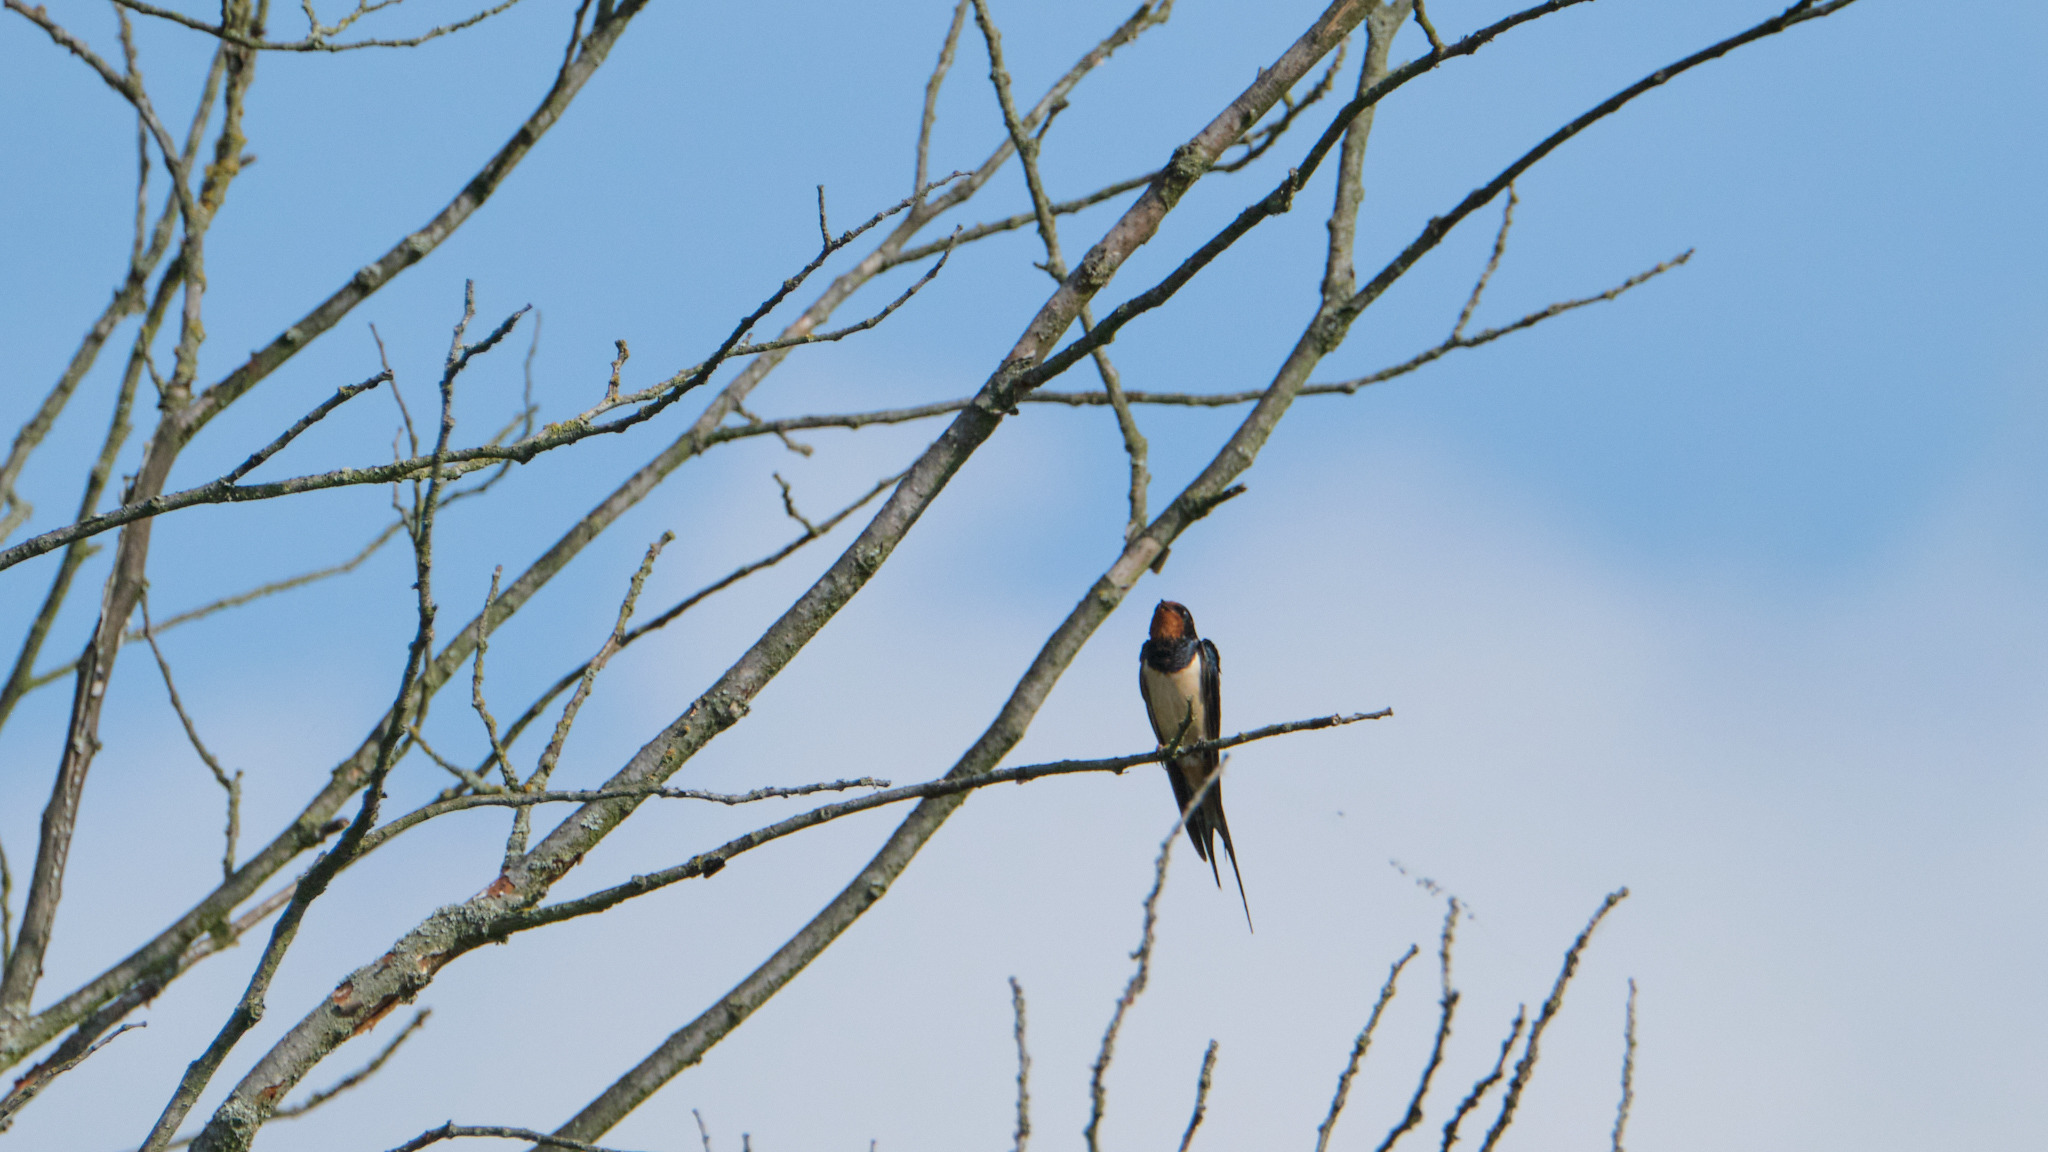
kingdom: Animalia
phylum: Chordata
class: Aves
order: Passeriformes
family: Hirundinidae
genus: Hirundo
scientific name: Hirundo rustica
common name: Barn swallow
